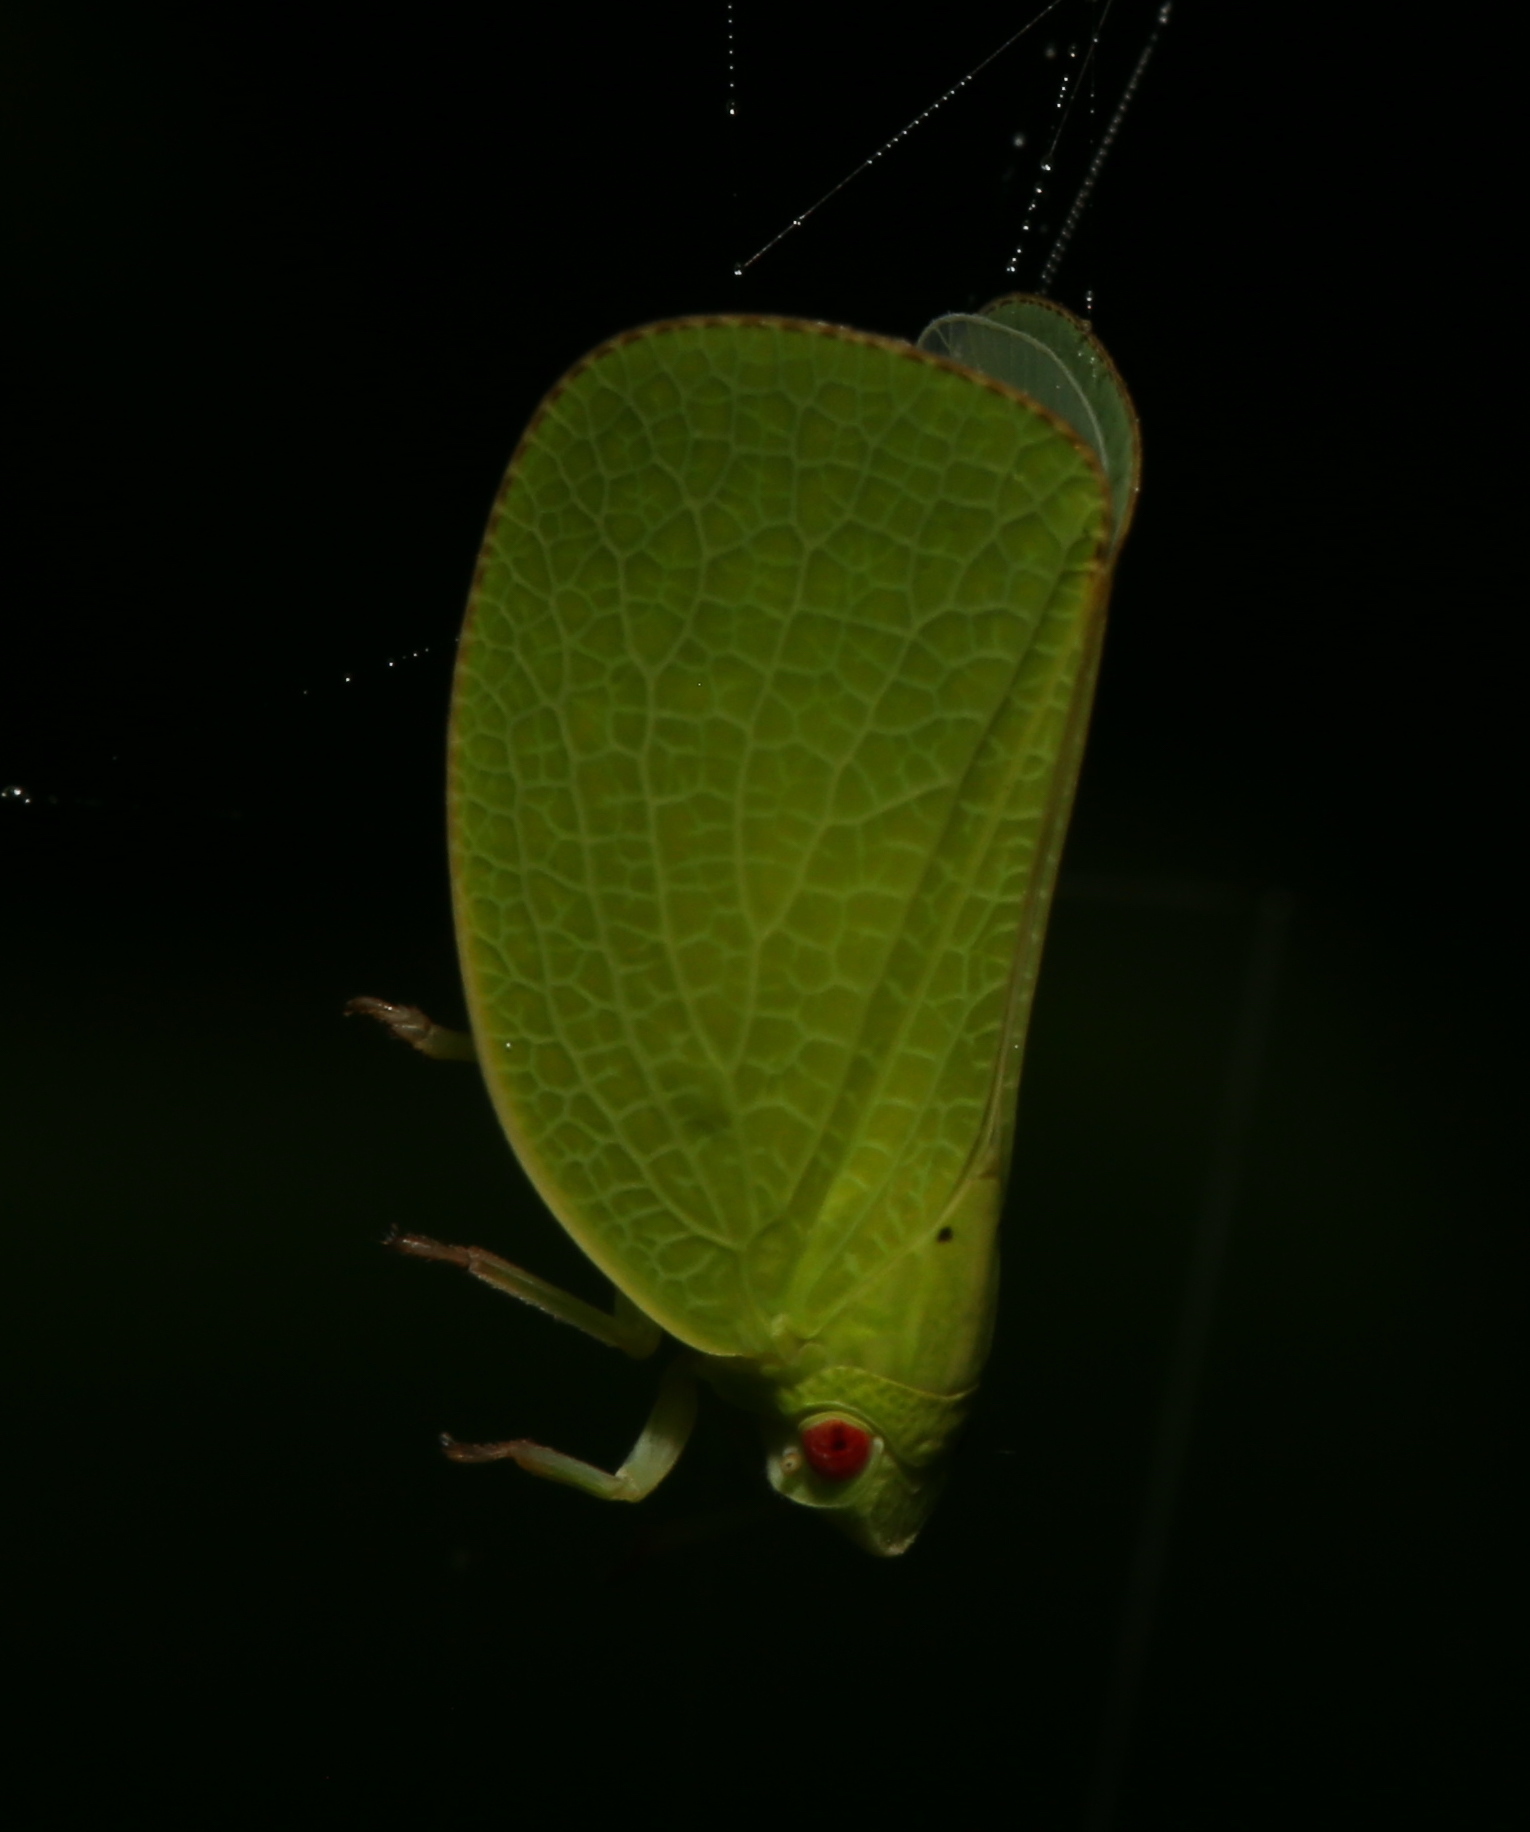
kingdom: Animalia
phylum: Arthropoda
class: Insecta
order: Hemiptera
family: Acanaloniidae
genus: Acanalonia
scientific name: Acanalonia conica
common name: Green cone-headed planthopper
